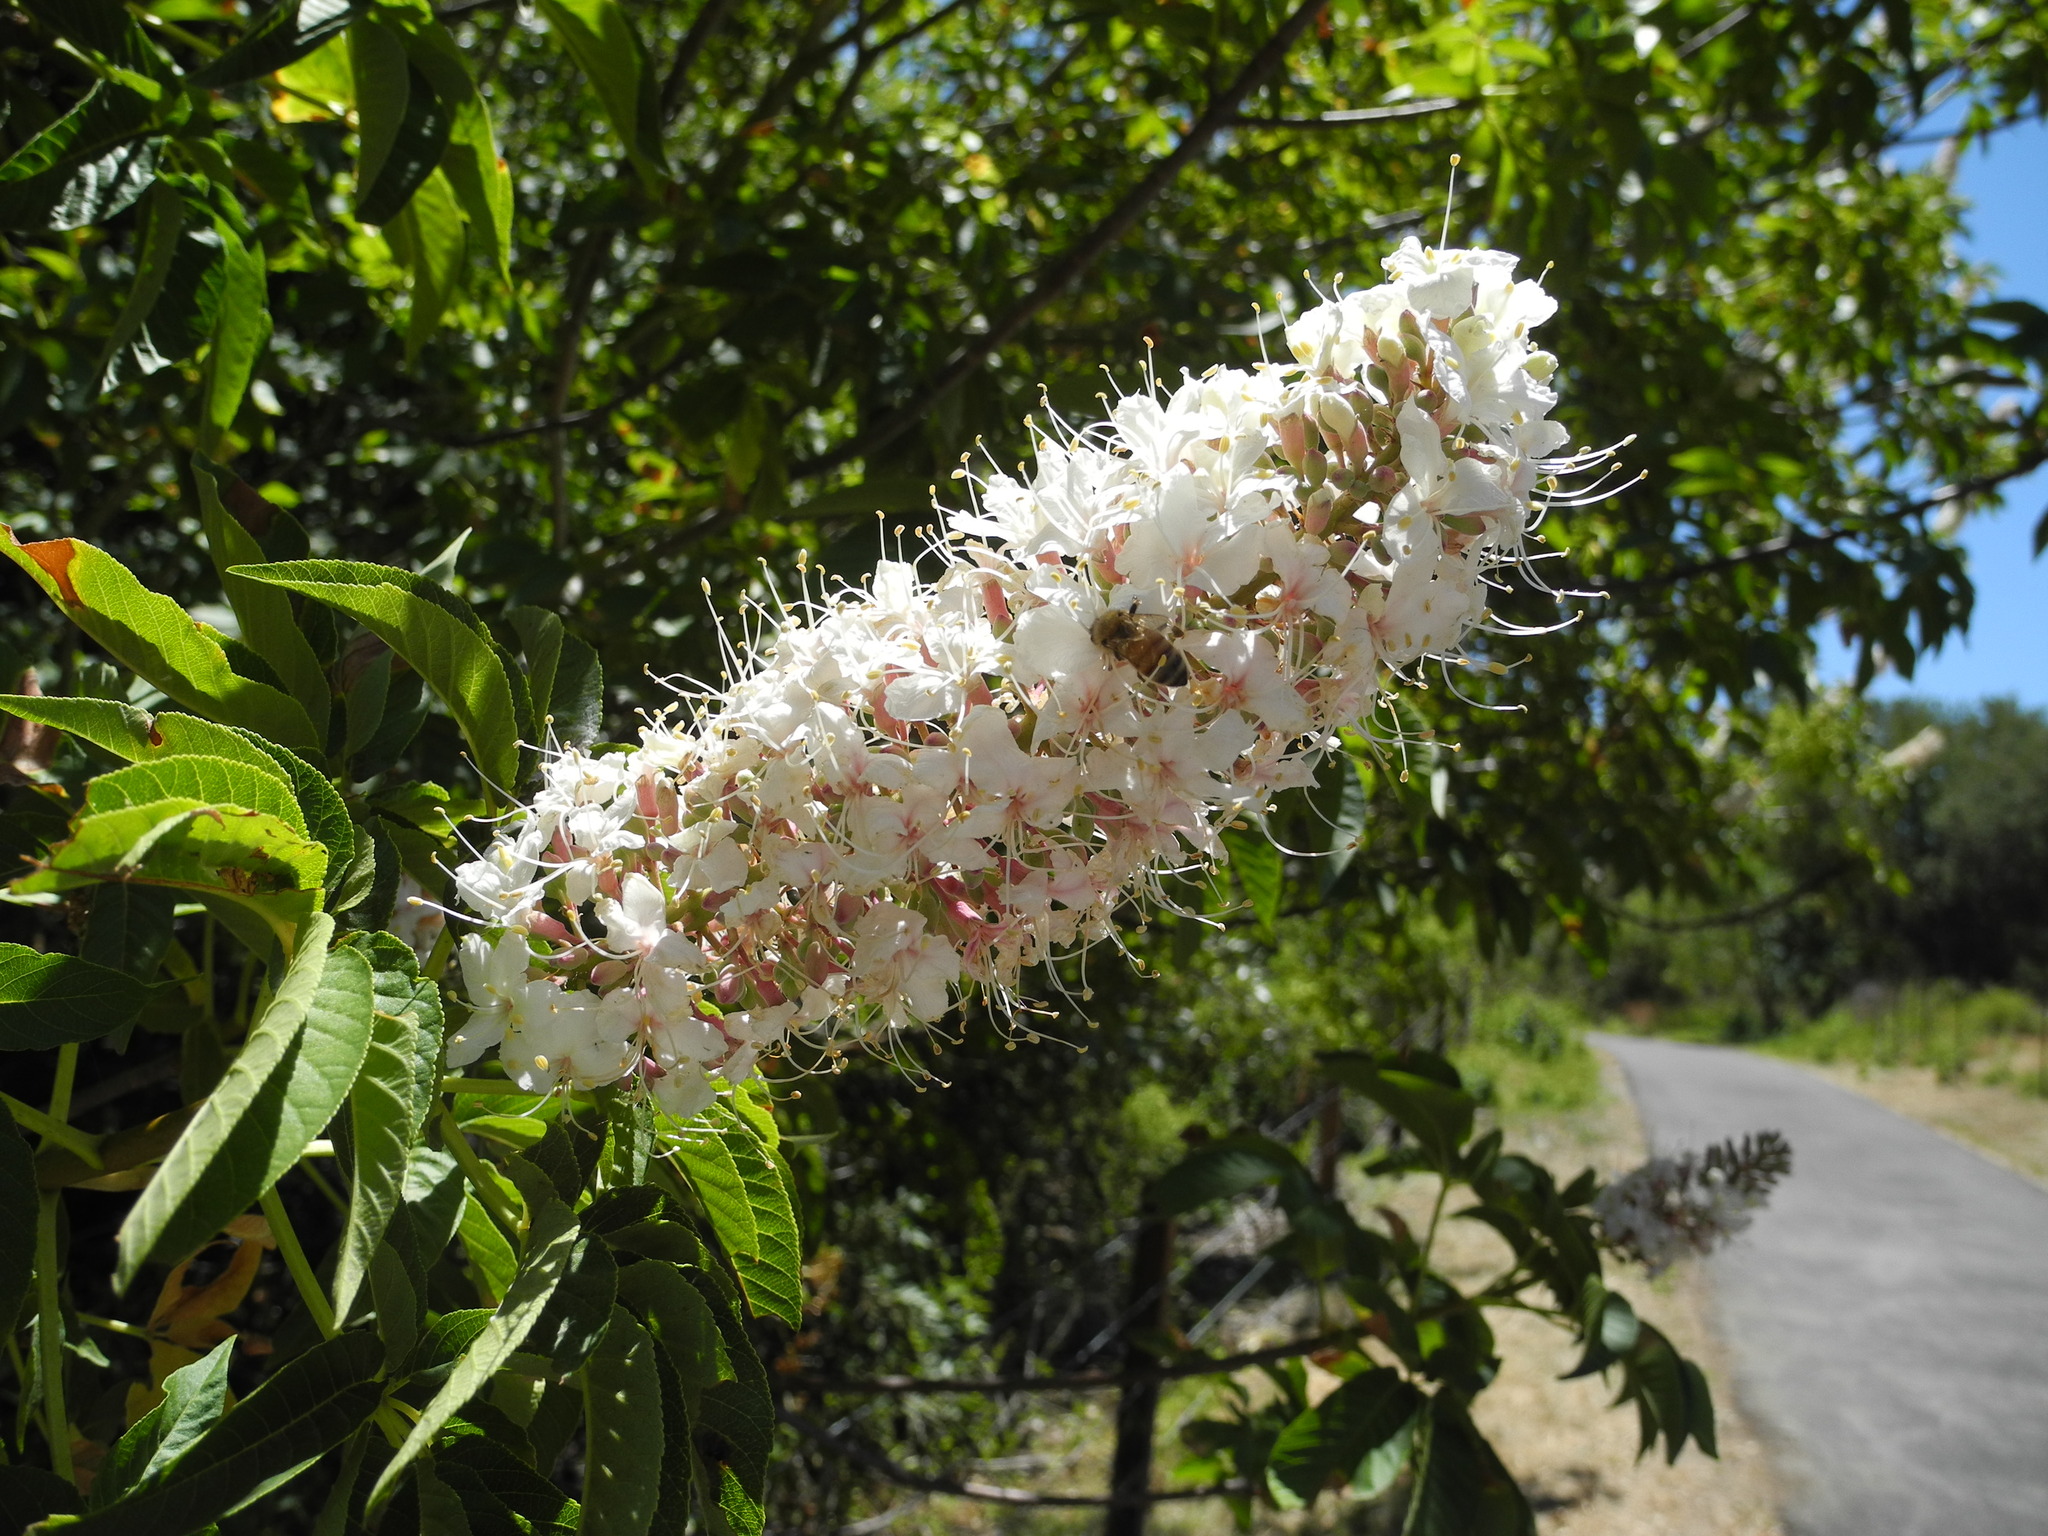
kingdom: Plantae
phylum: Tracheophyta
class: Magnoliopsida
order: Sapindales
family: Sapindaceae
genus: Aesculus
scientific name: Aesculus californica
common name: California buckeye
